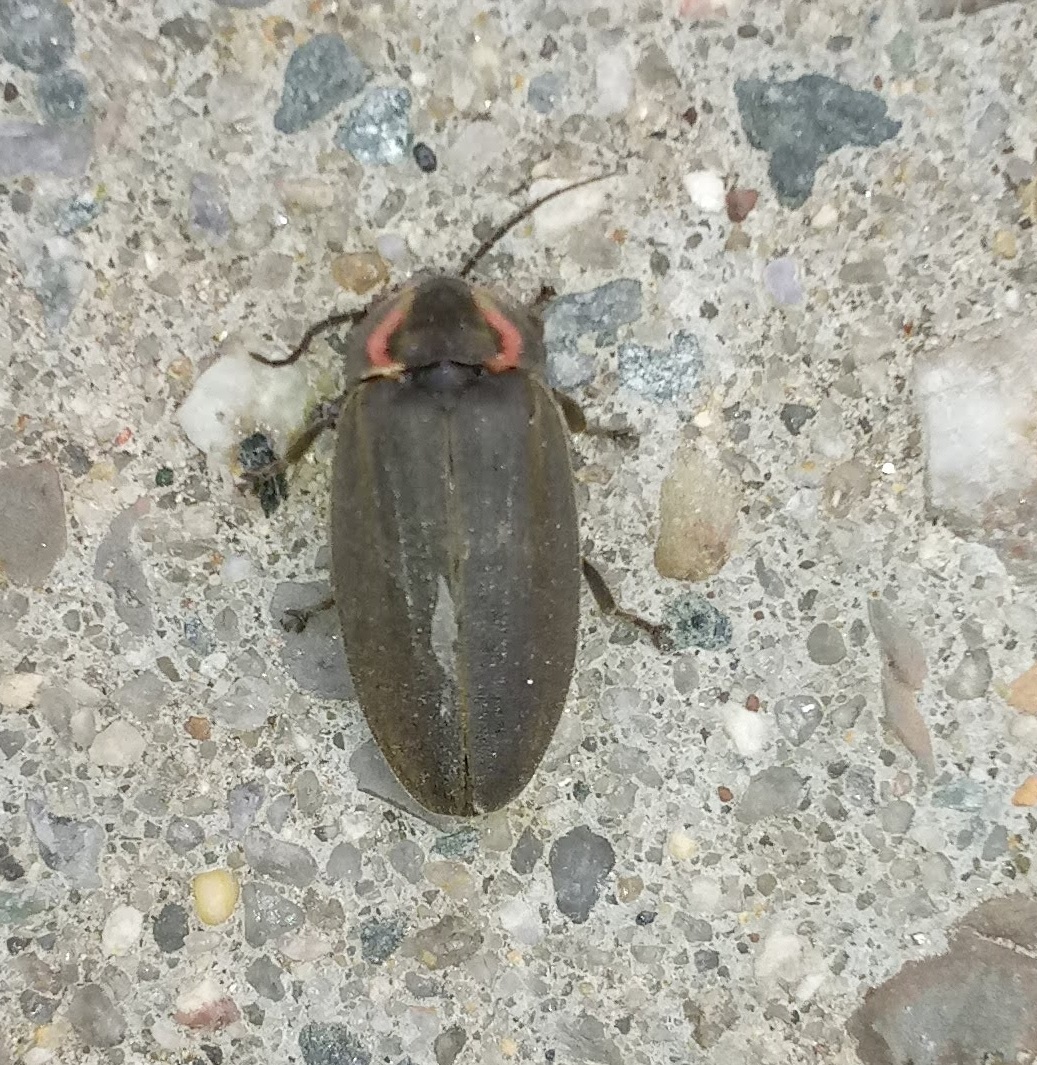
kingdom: Animalia
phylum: Arthropoda
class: Insecta
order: Coleoptera
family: Lampyridae
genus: Photinus
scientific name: Photinus corrusca
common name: Winter firefly
